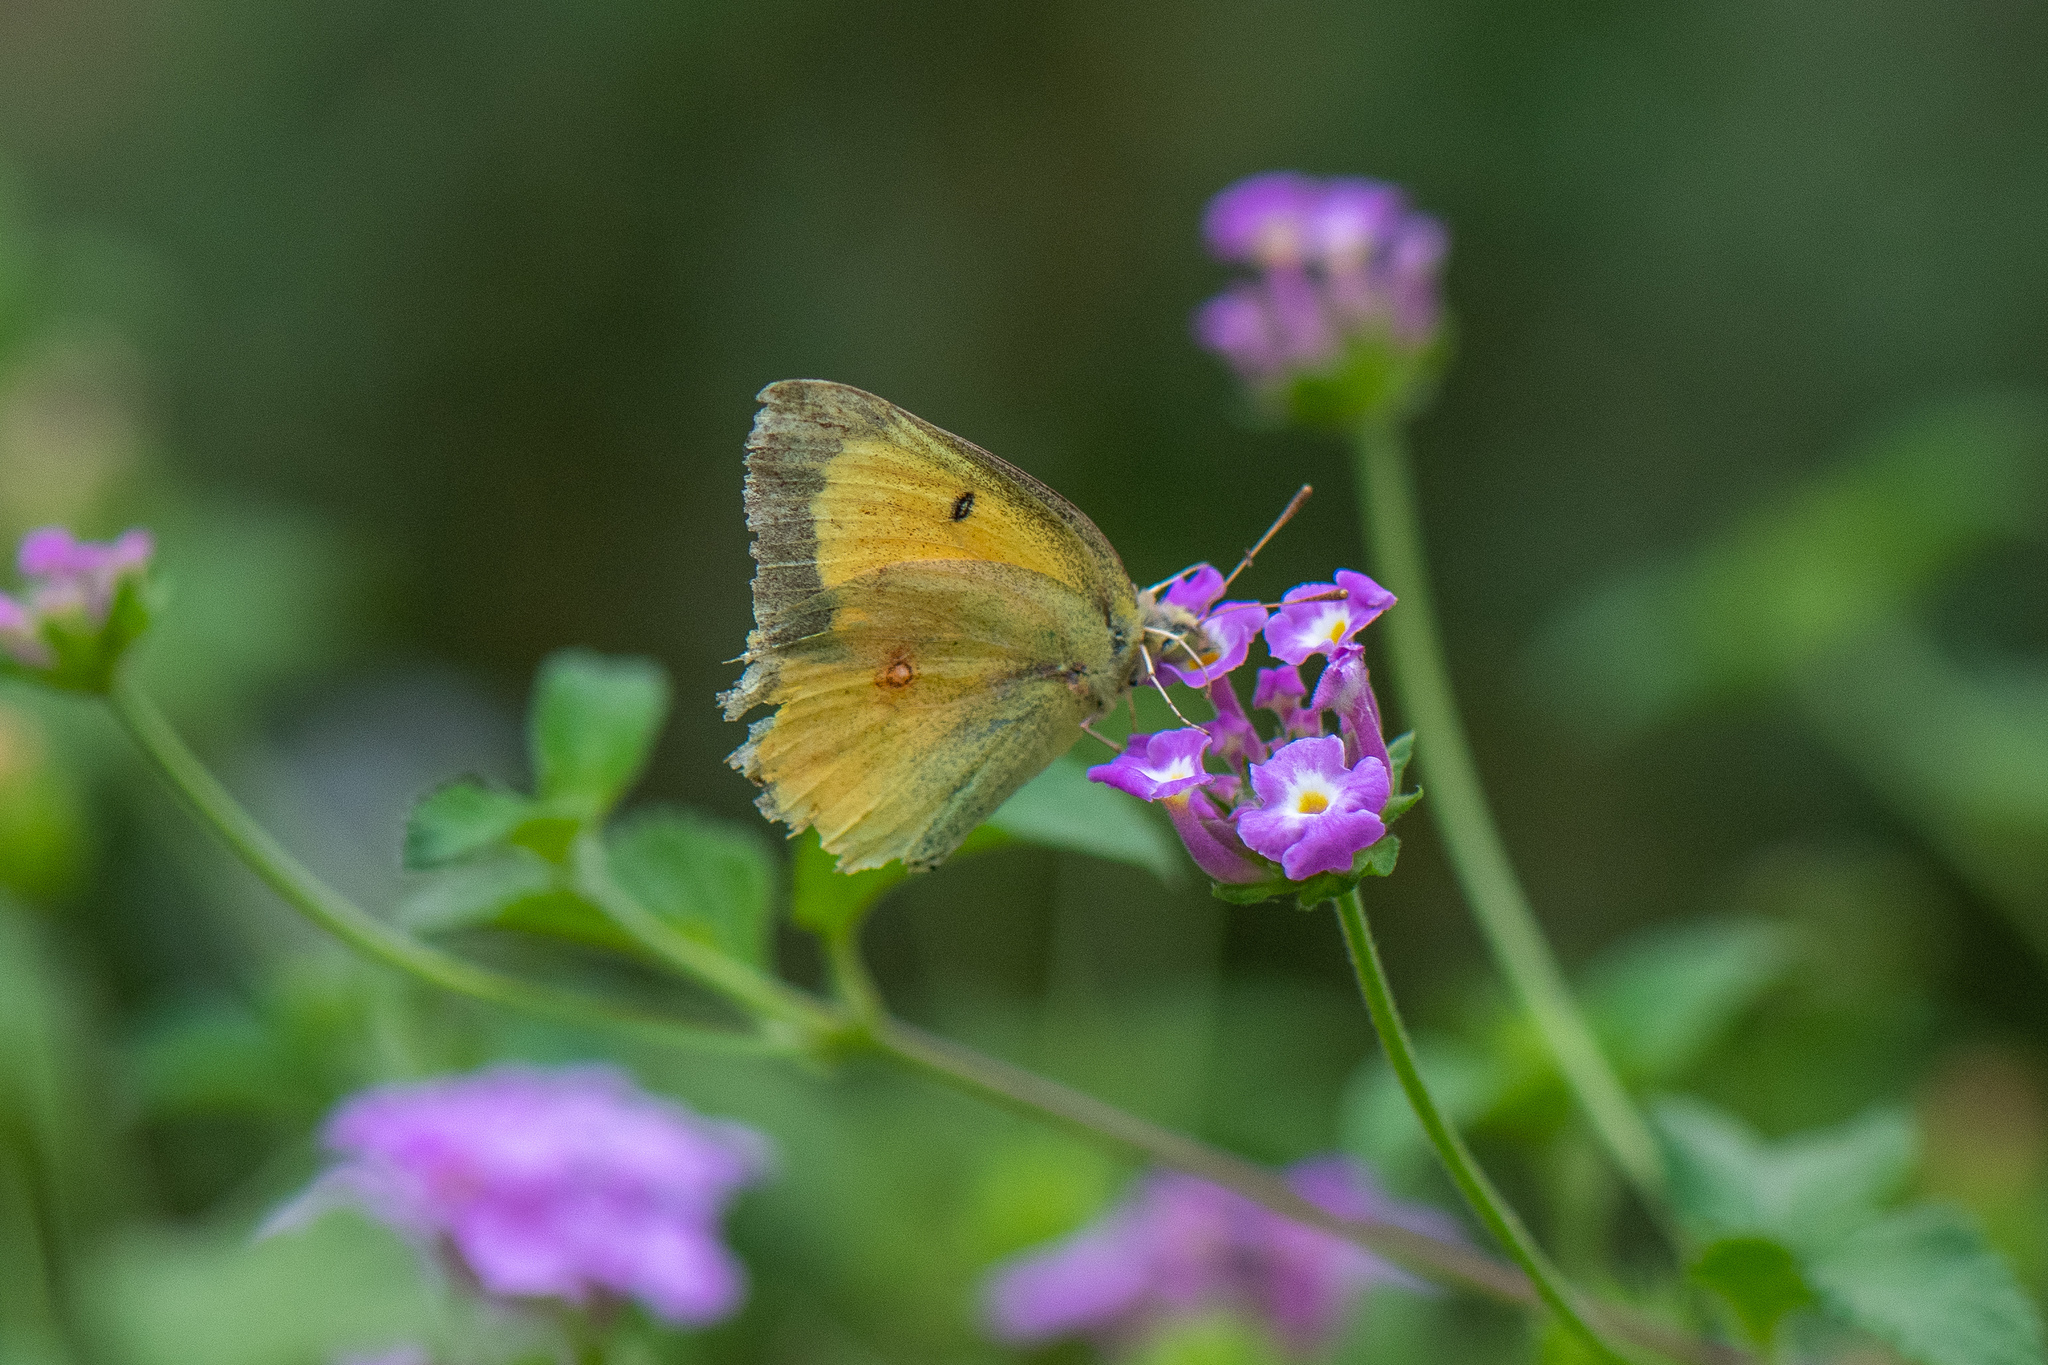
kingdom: Animalia
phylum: Arthropoda
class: Insecta
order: Lepidoptera
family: Pieridae
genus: Colias
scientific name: Colias eurytheme
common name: Alfalfa butterfly
